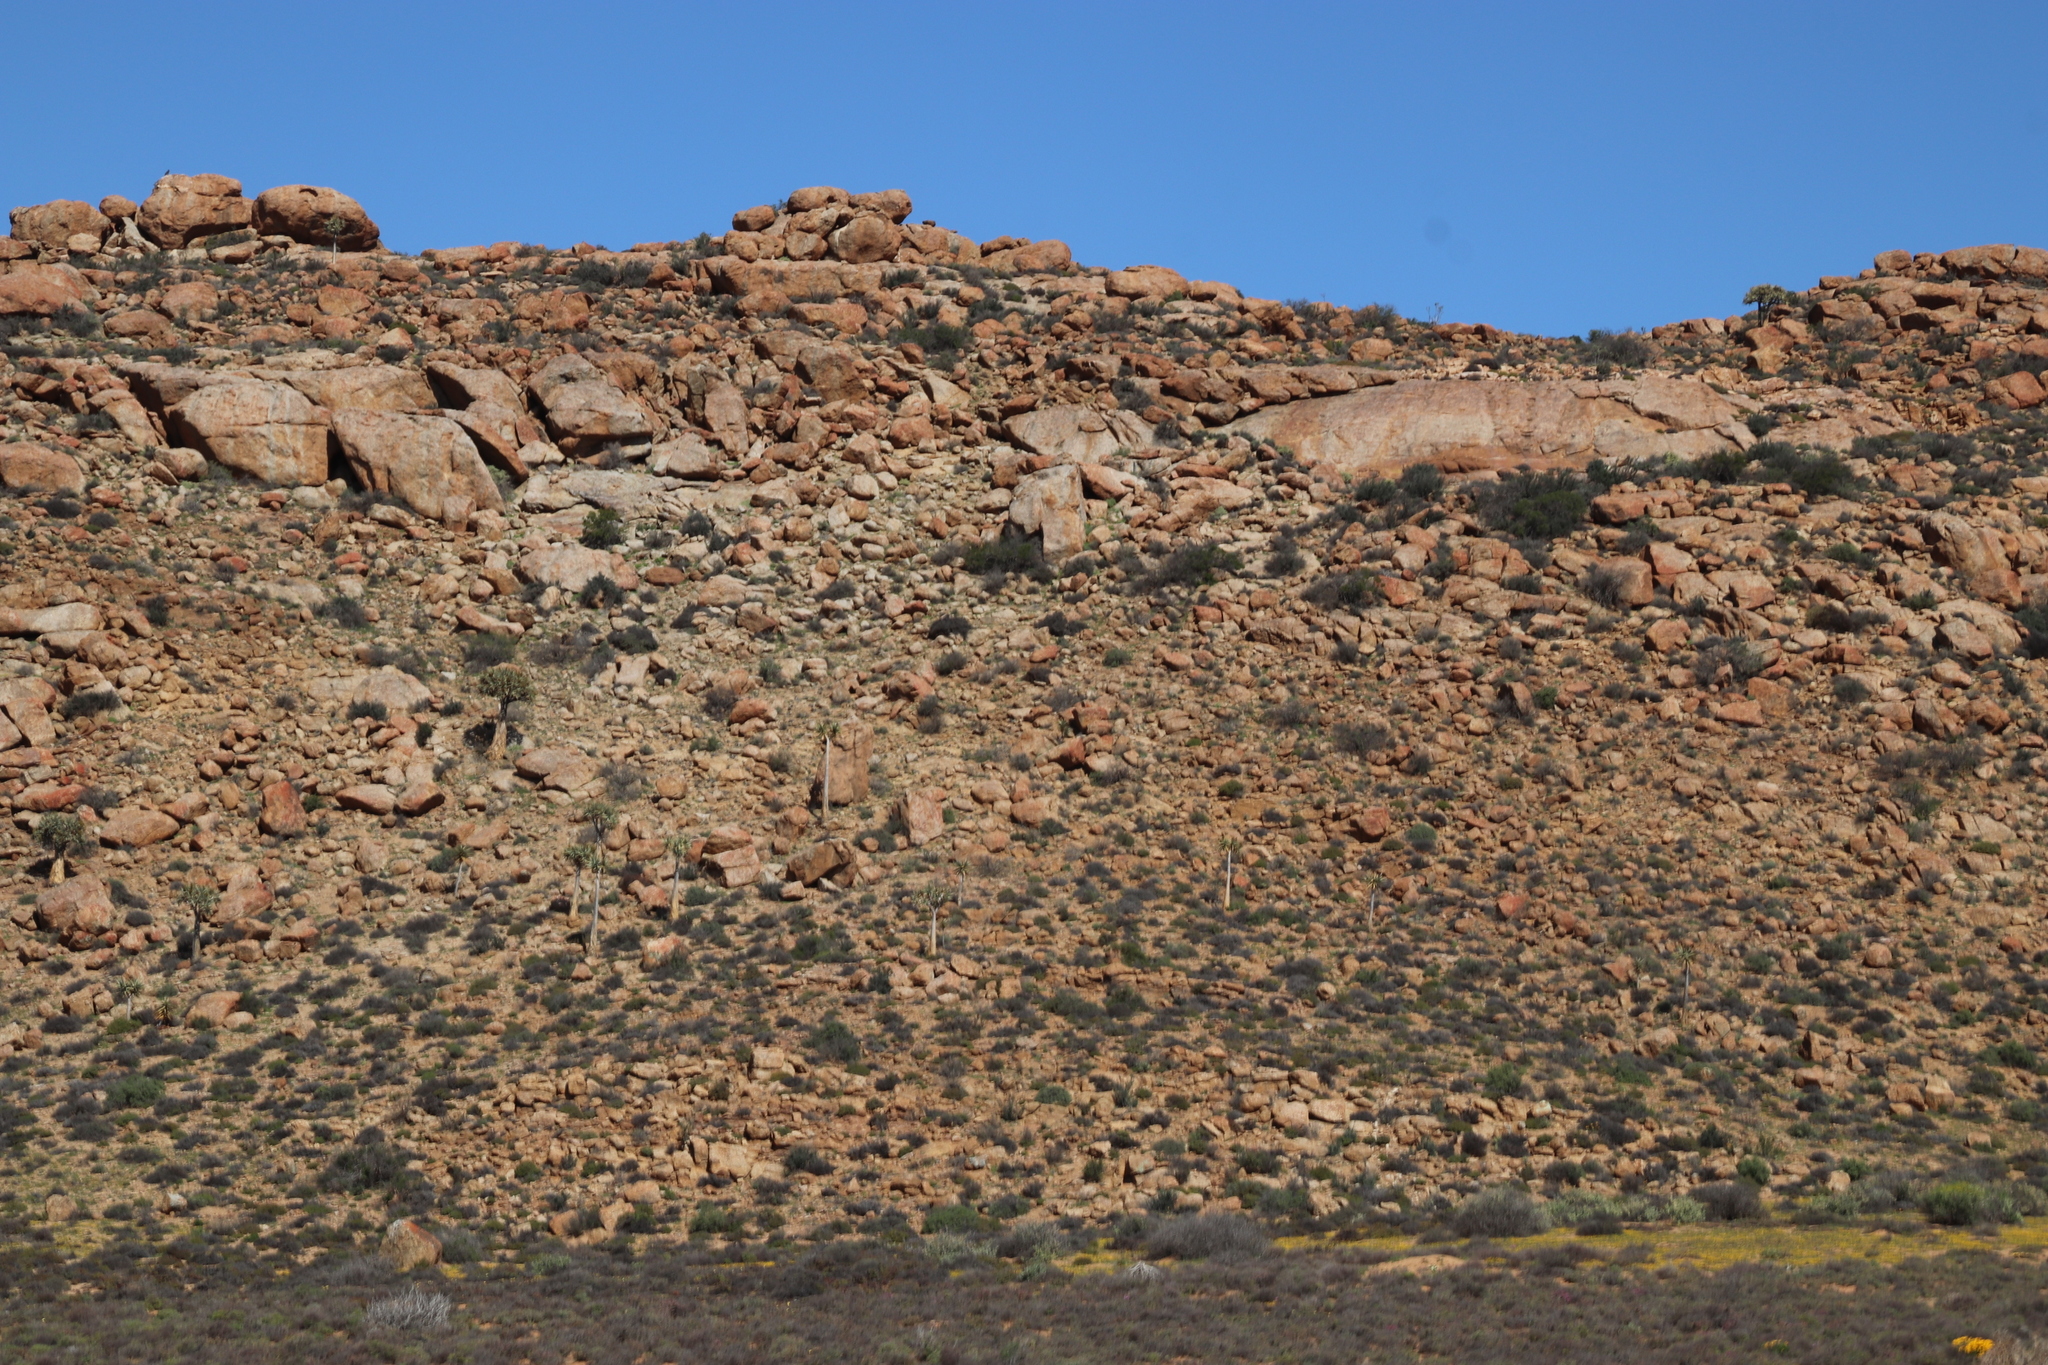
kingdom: Plantae
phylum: Tracheophyta
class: Liliopsida
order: Asparagales
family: Asphodelaceae
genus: Aloidendron
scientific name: Aloidendron dichotomum
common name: Quiver tree
